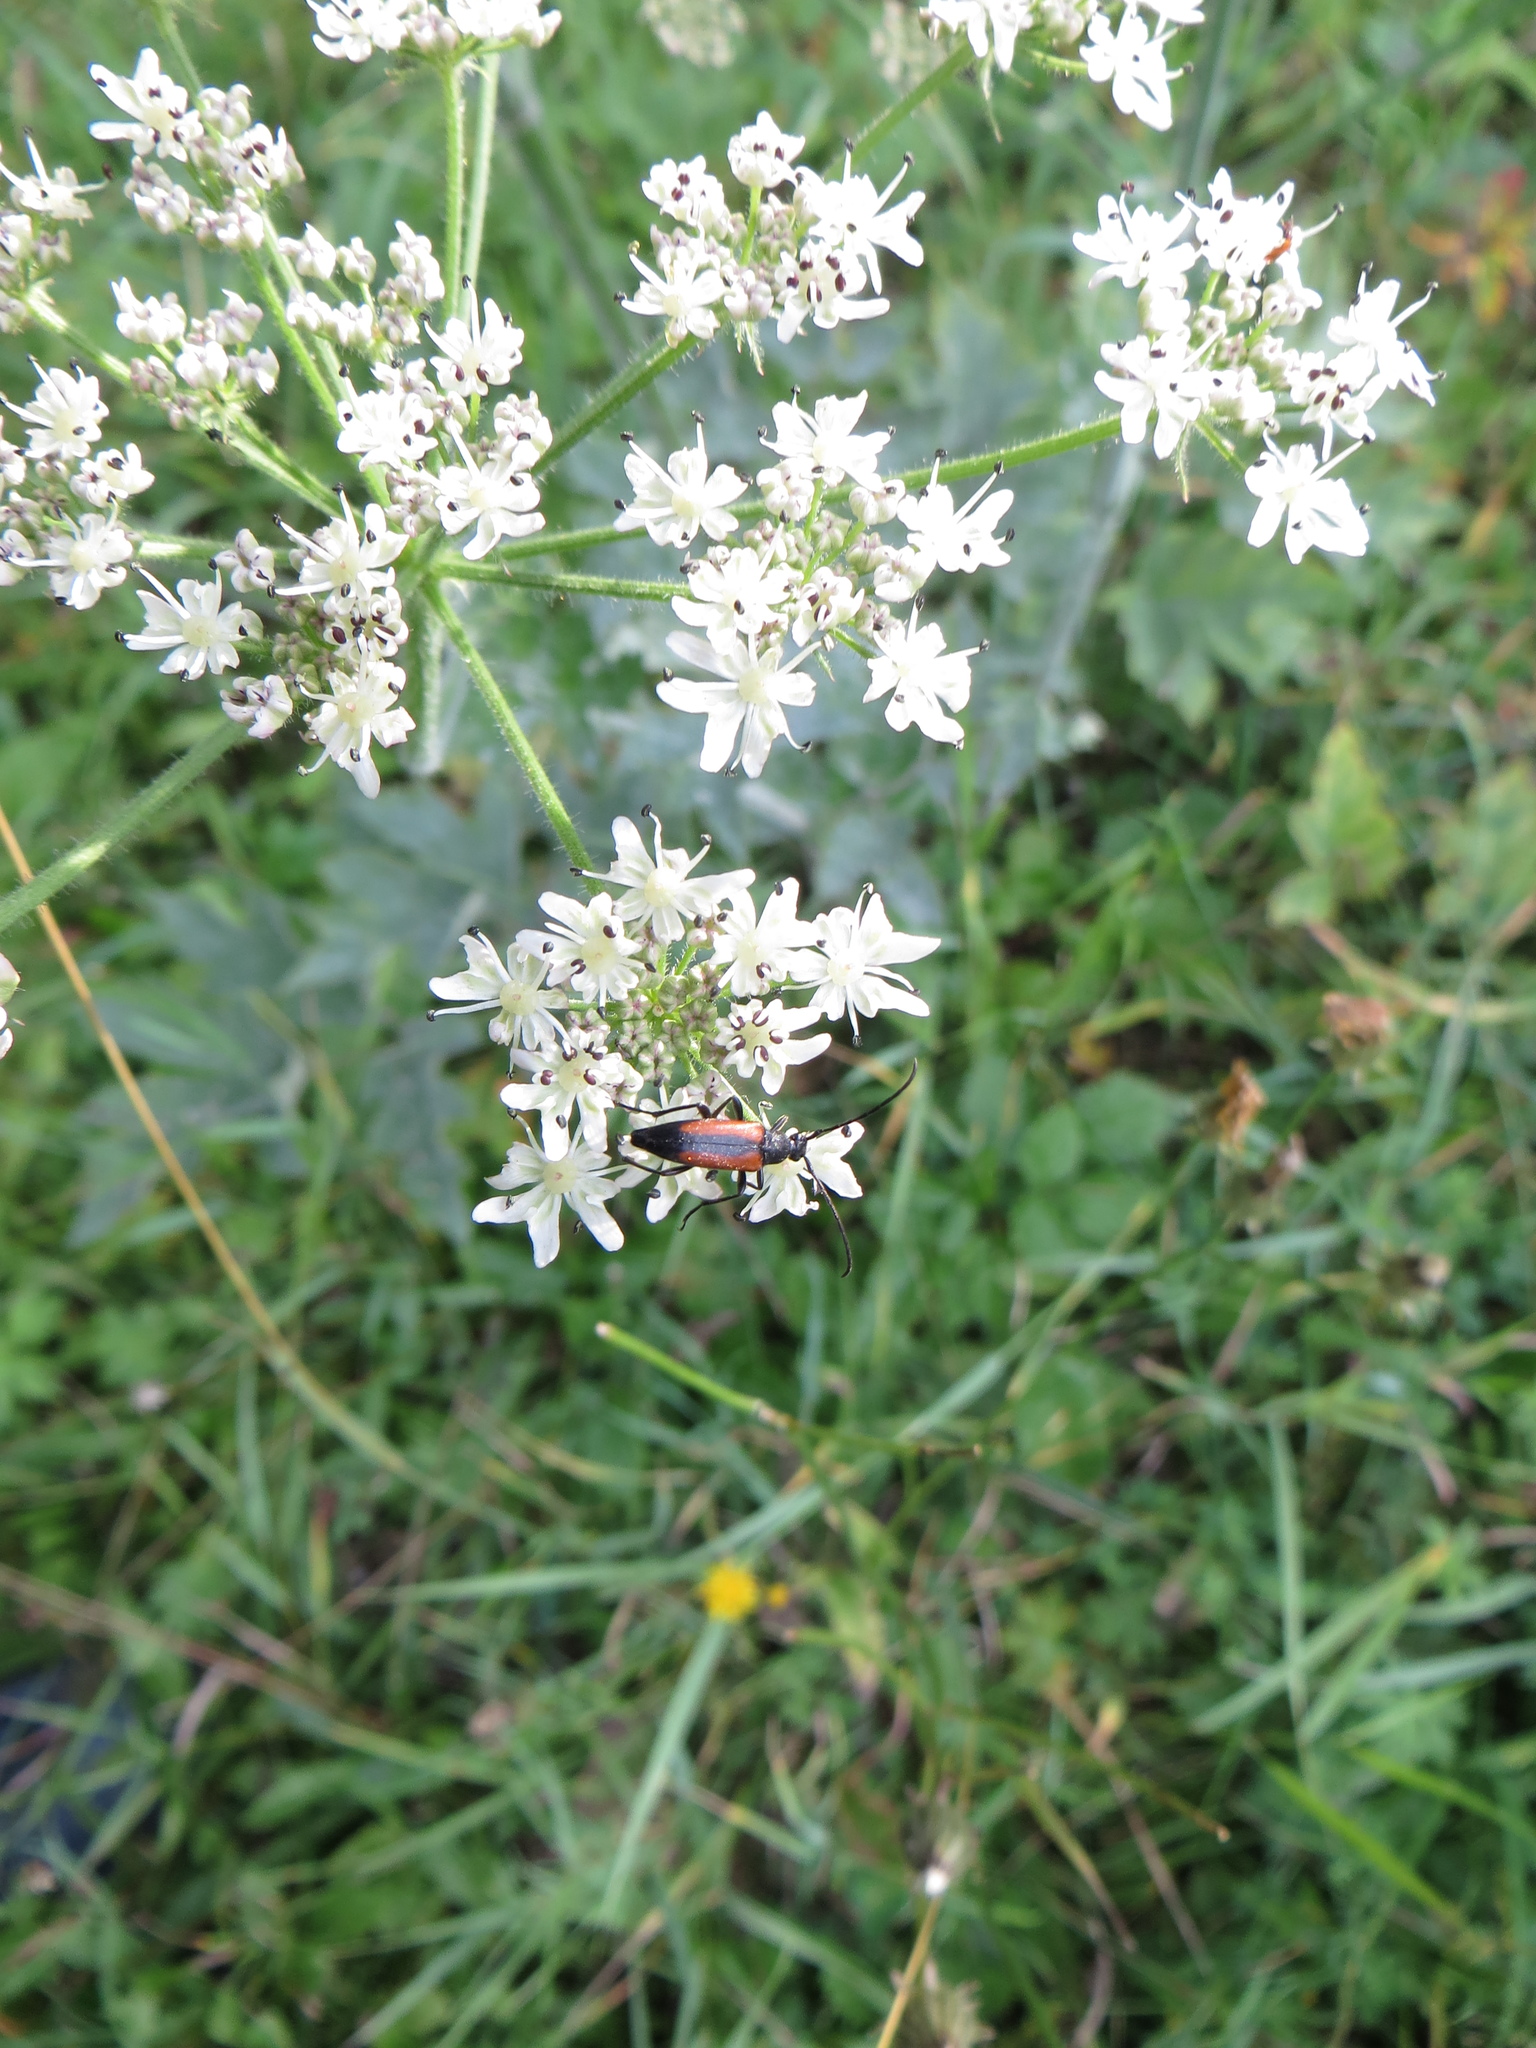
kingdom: Animalia
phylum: Arthropoda
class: Insecta
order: Coleoptera
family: Cerambycidae
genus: Stenurella
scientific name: Stenurella melanura
